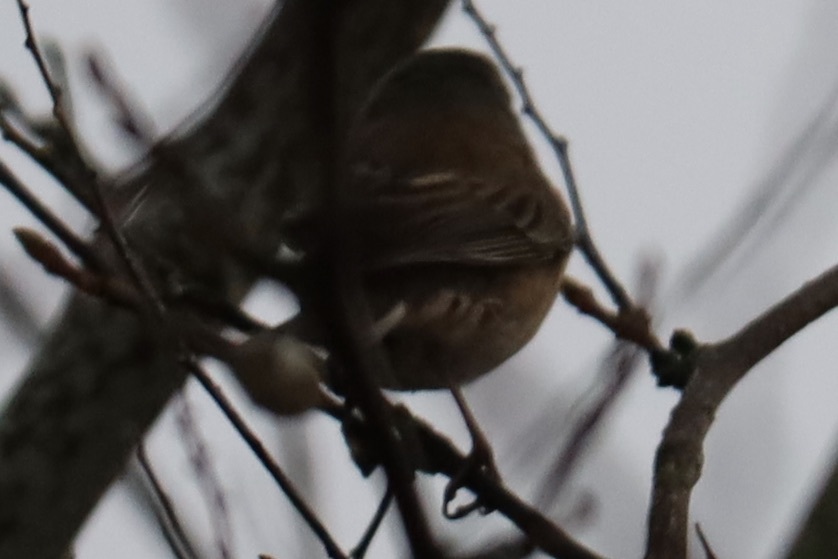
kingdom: Animalia
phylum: Chordata
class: Aves
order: Passeriformes
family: Passerellidae
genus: Junco
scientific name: Junco hyemalis
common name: Dark-eyed junco
